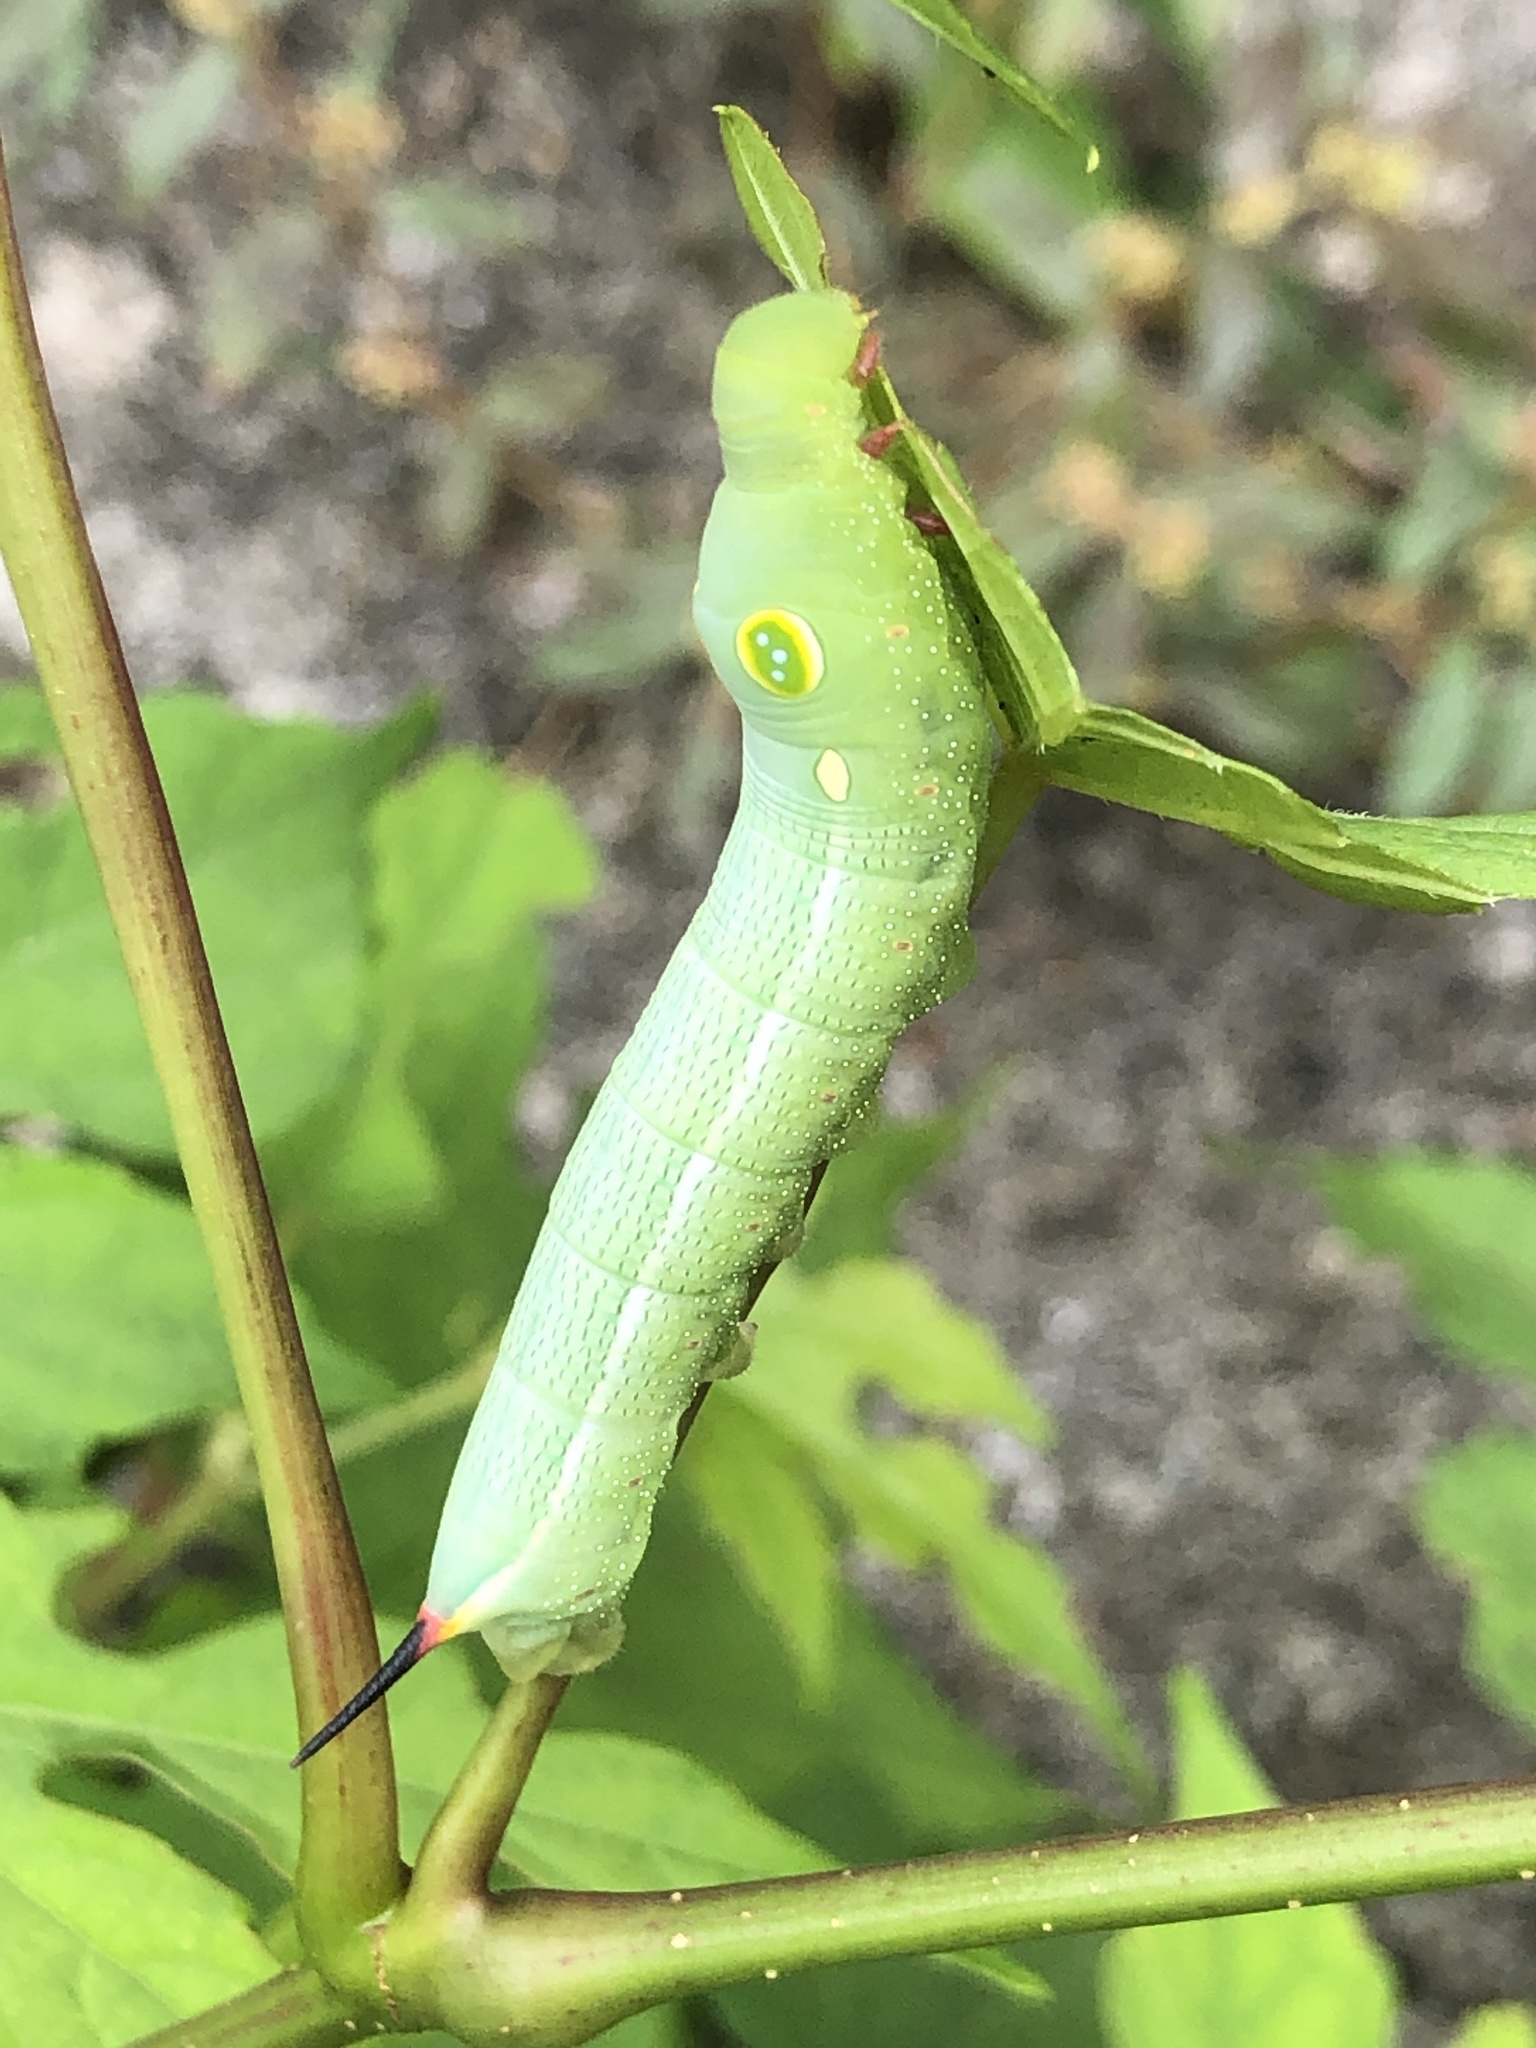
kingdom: Animalia
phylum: Arthropoda
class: Insecta
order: Lepidoptera
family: Sphingidae
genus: Hippotion
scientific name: Hippotion celerio
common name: Silver-striped hawk-moth
